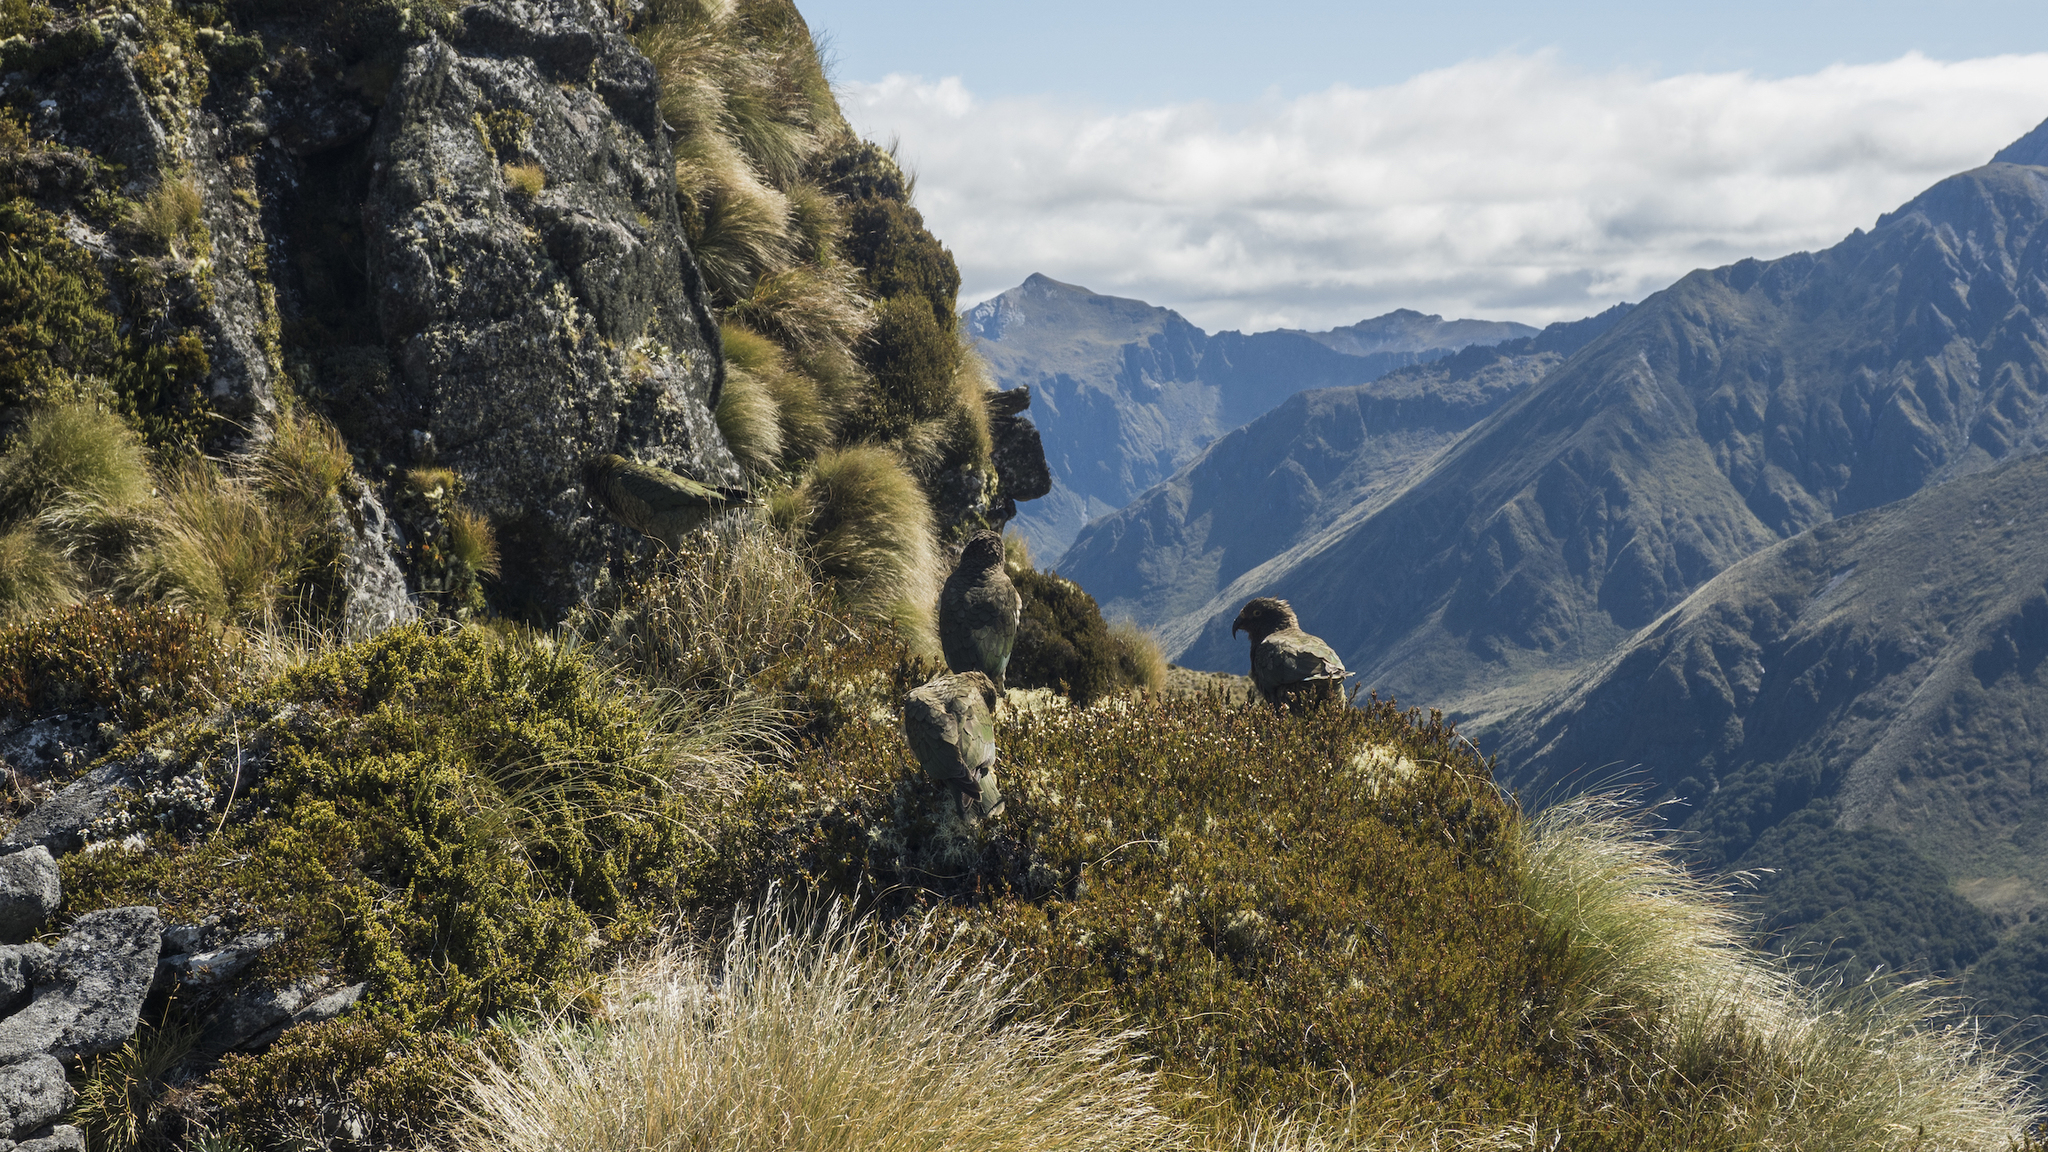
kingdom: Animalia
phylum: Chordata
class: Aves
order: Psittaciformes
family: Psittacidae
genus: Nestor
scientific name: Nestor notabilis
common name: Kea
